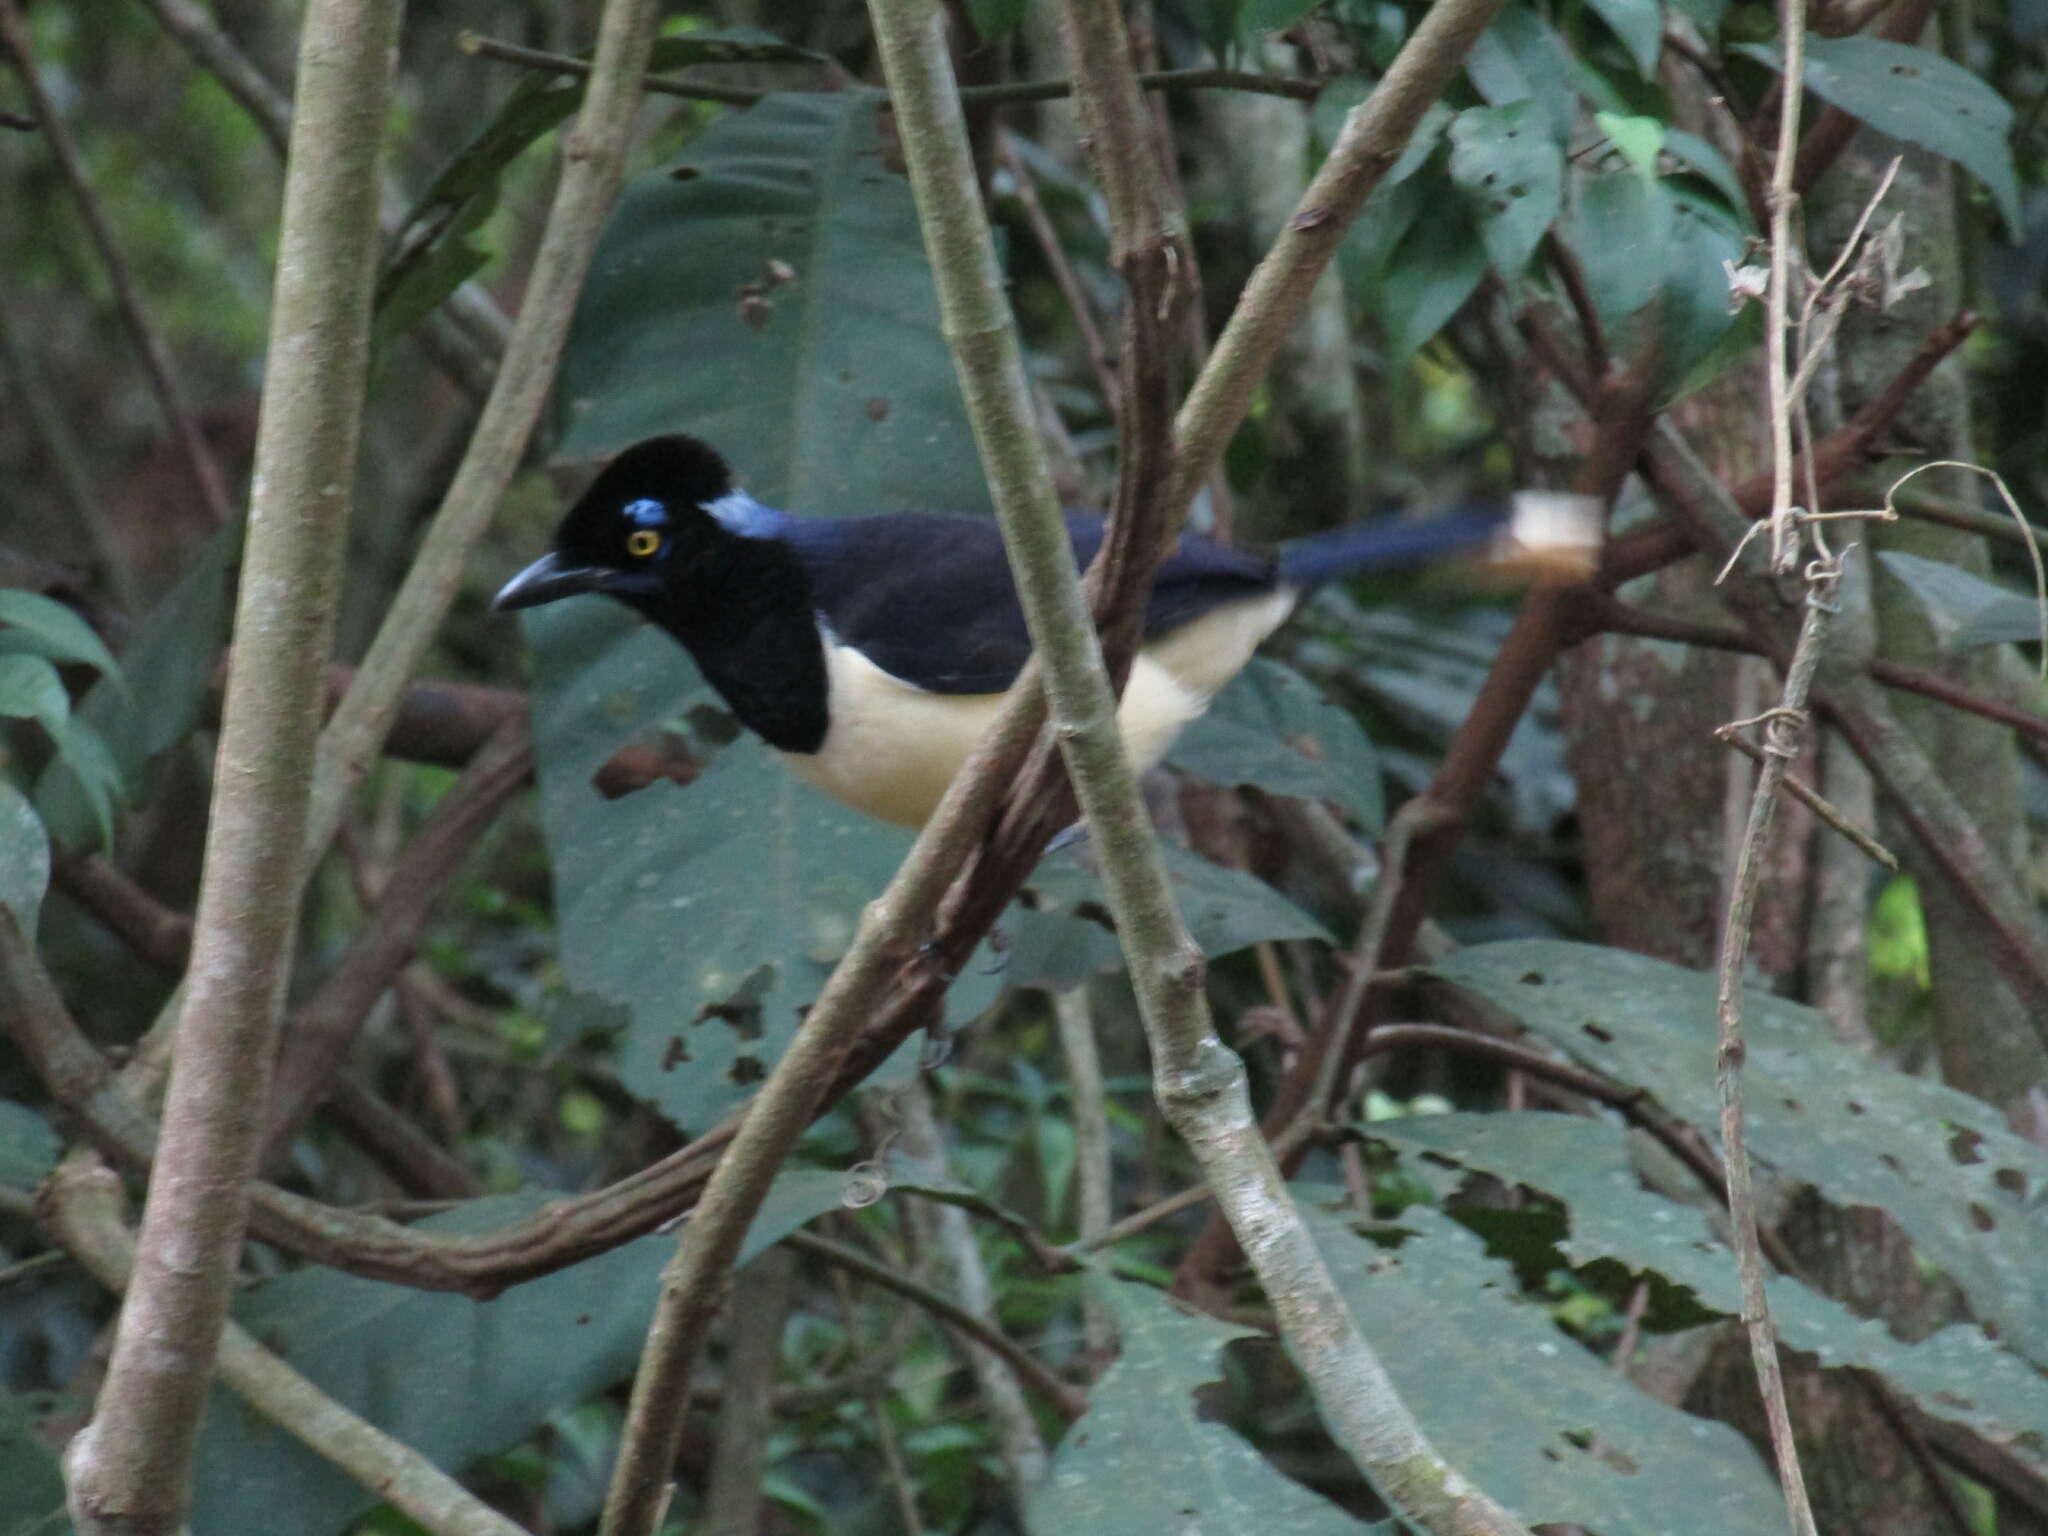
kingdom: Animalia
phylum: Chordata
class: Aves
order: Passeriformes
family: Corvidae
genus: Cyanocorax
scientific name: Cyanocorax chrysops
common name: Plush-crested jay
